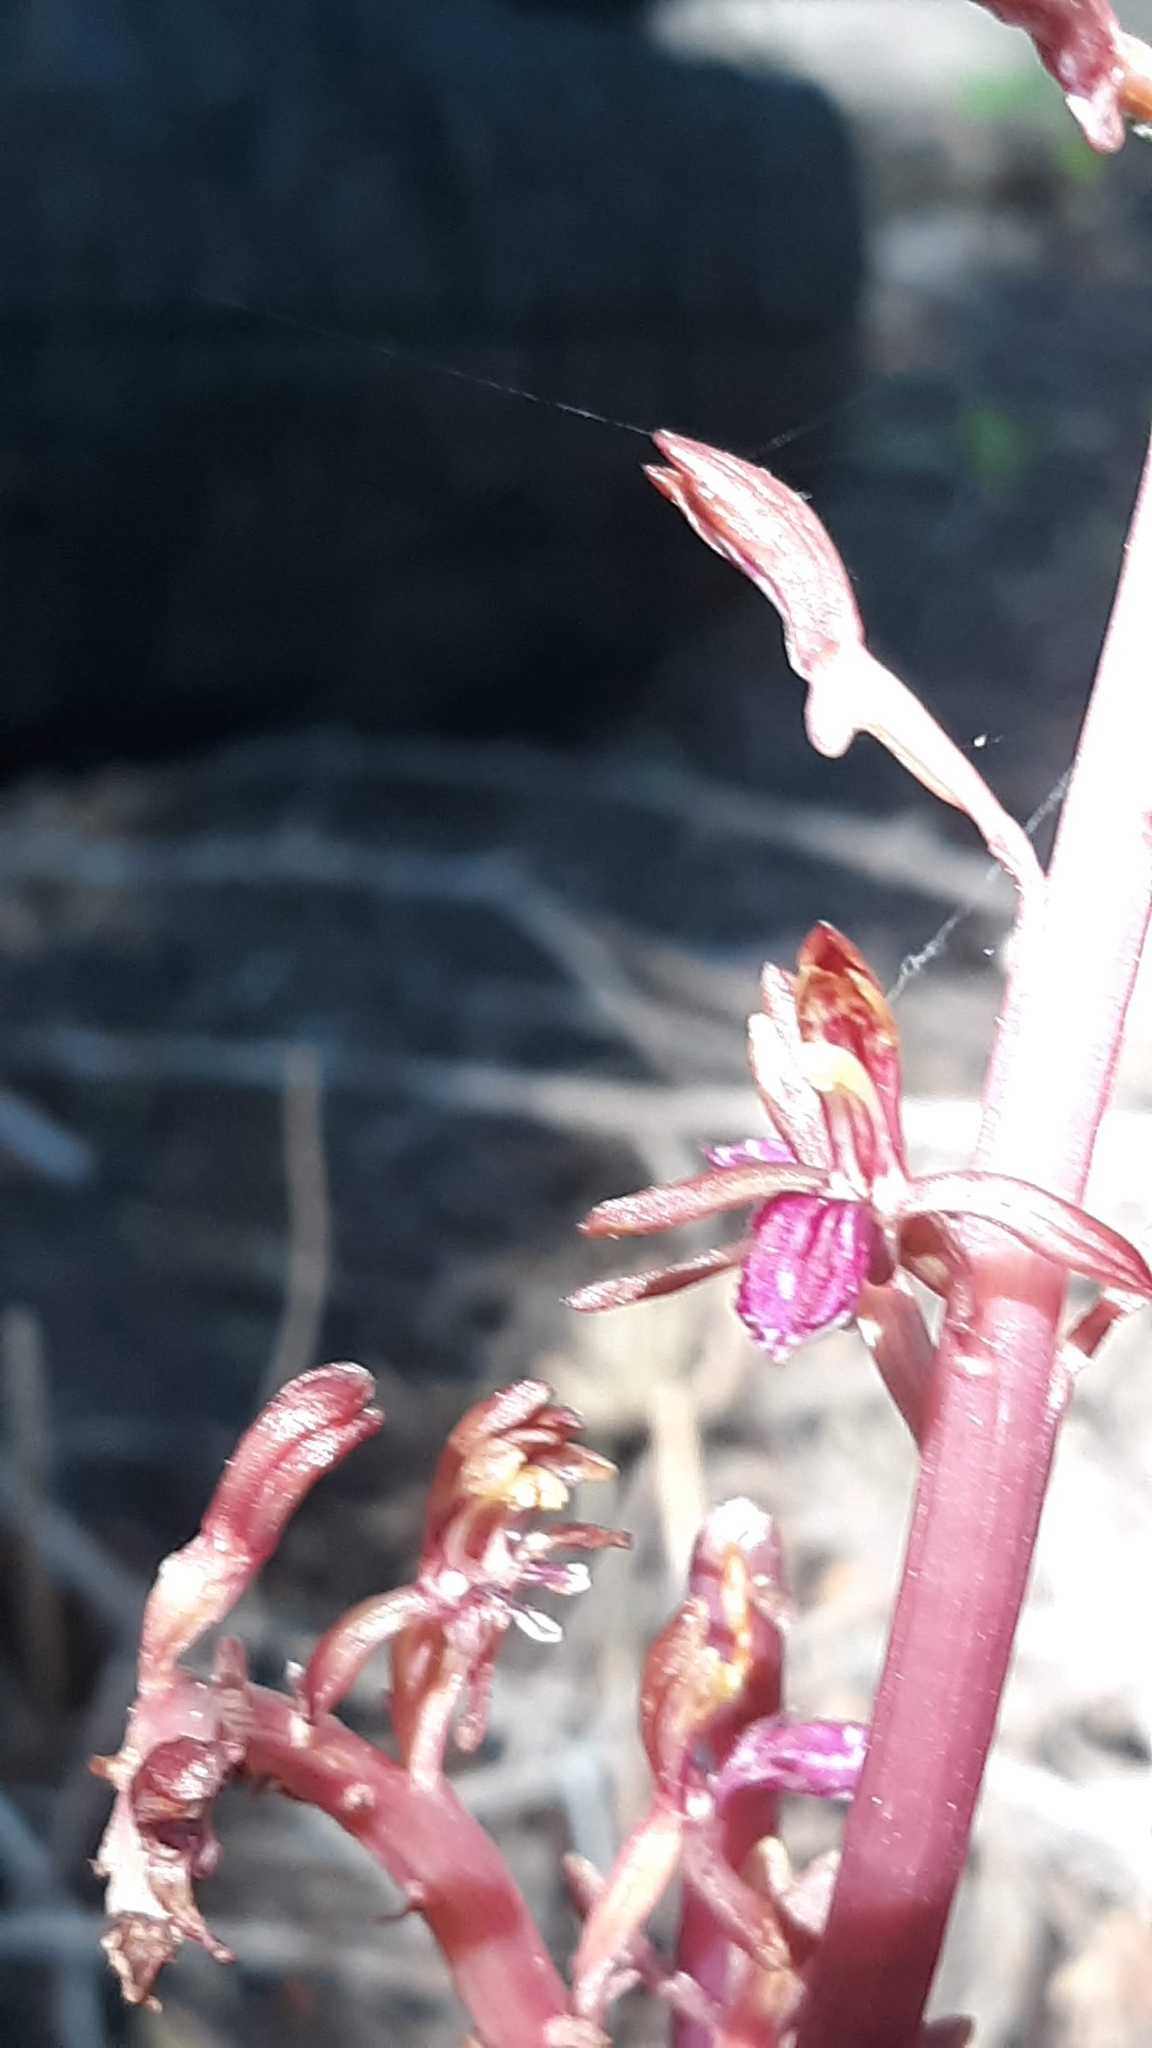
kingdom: Plantae
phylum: Tracheophyta
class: Liliopsida
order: Asparagales
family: Orchidaceae
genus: Corallorhiza
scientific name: Corallorhiza mertensiana
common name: Pacific coralroot
